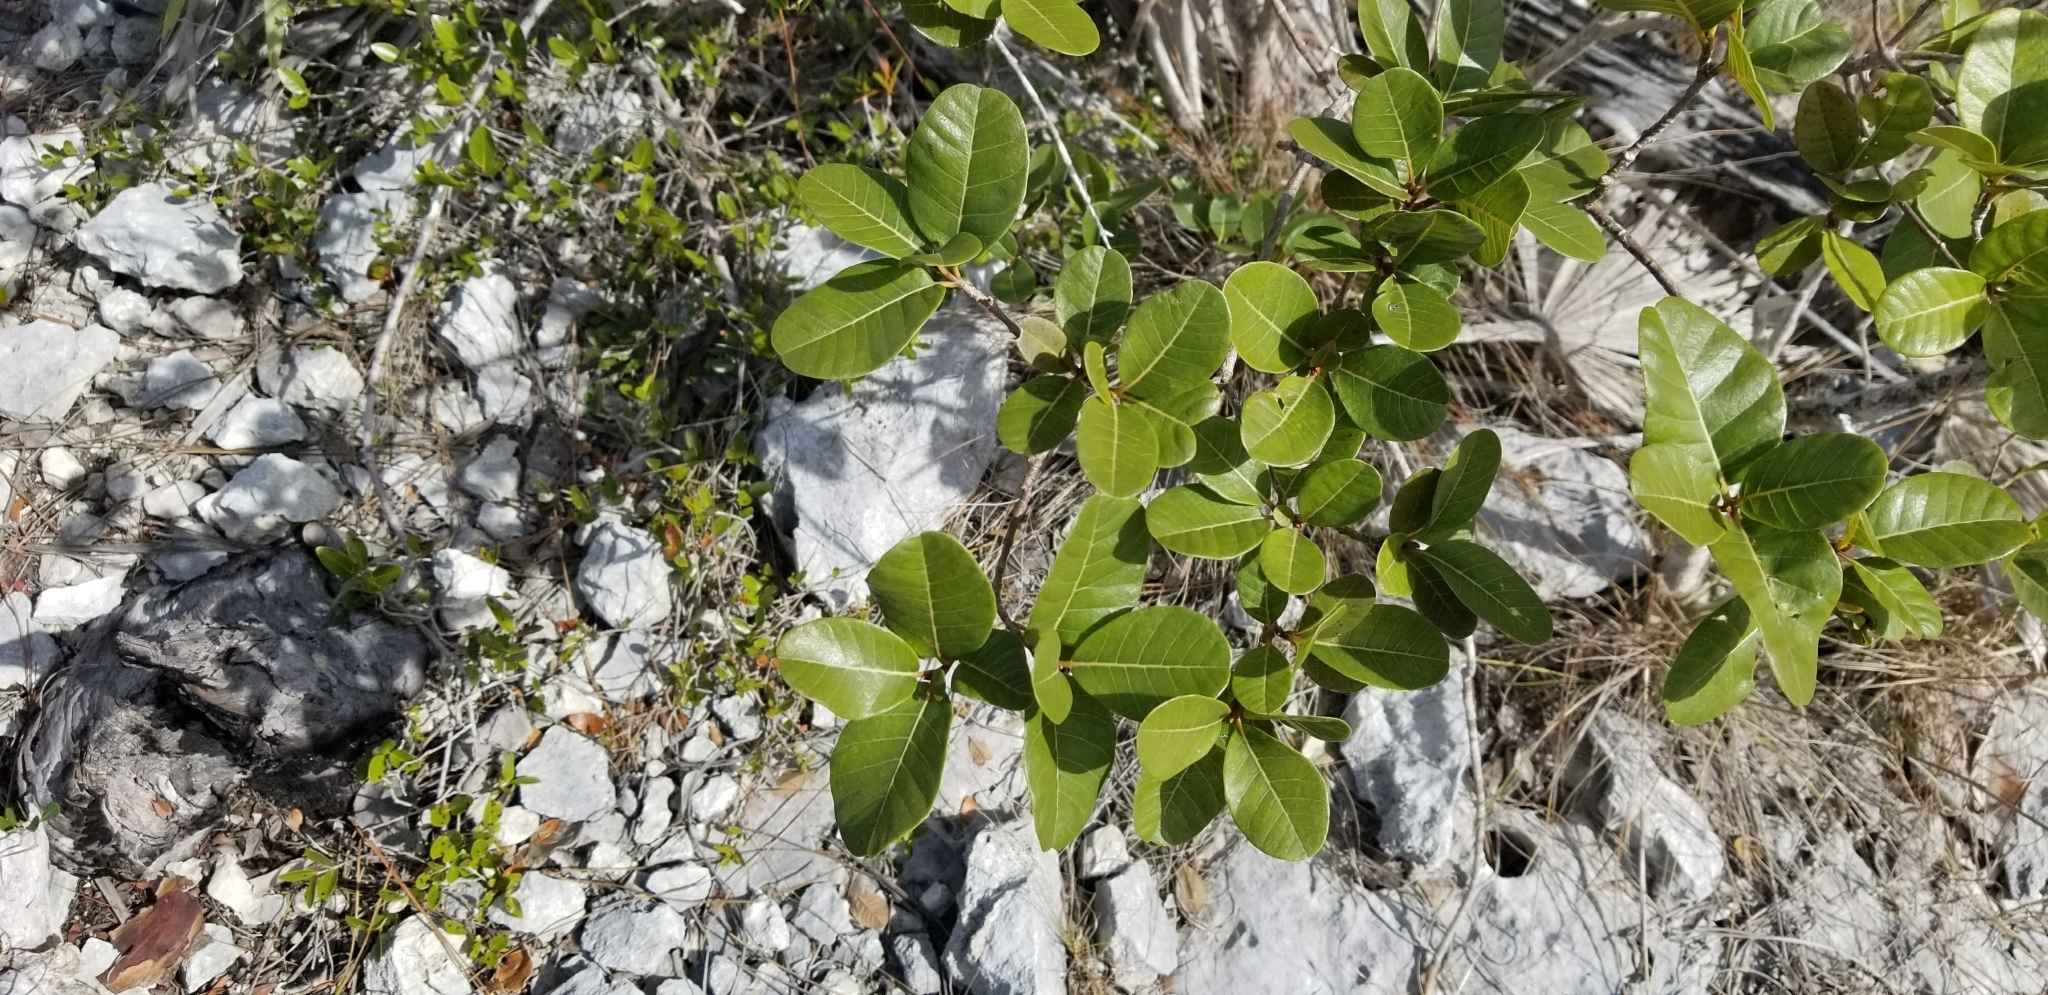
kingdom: Plantae
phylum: Tracheophyta
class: Magnoliopsida
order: Caryophyllales
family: Nyctaginaceae
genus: Pisonia
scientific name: Pisonia rotundata
